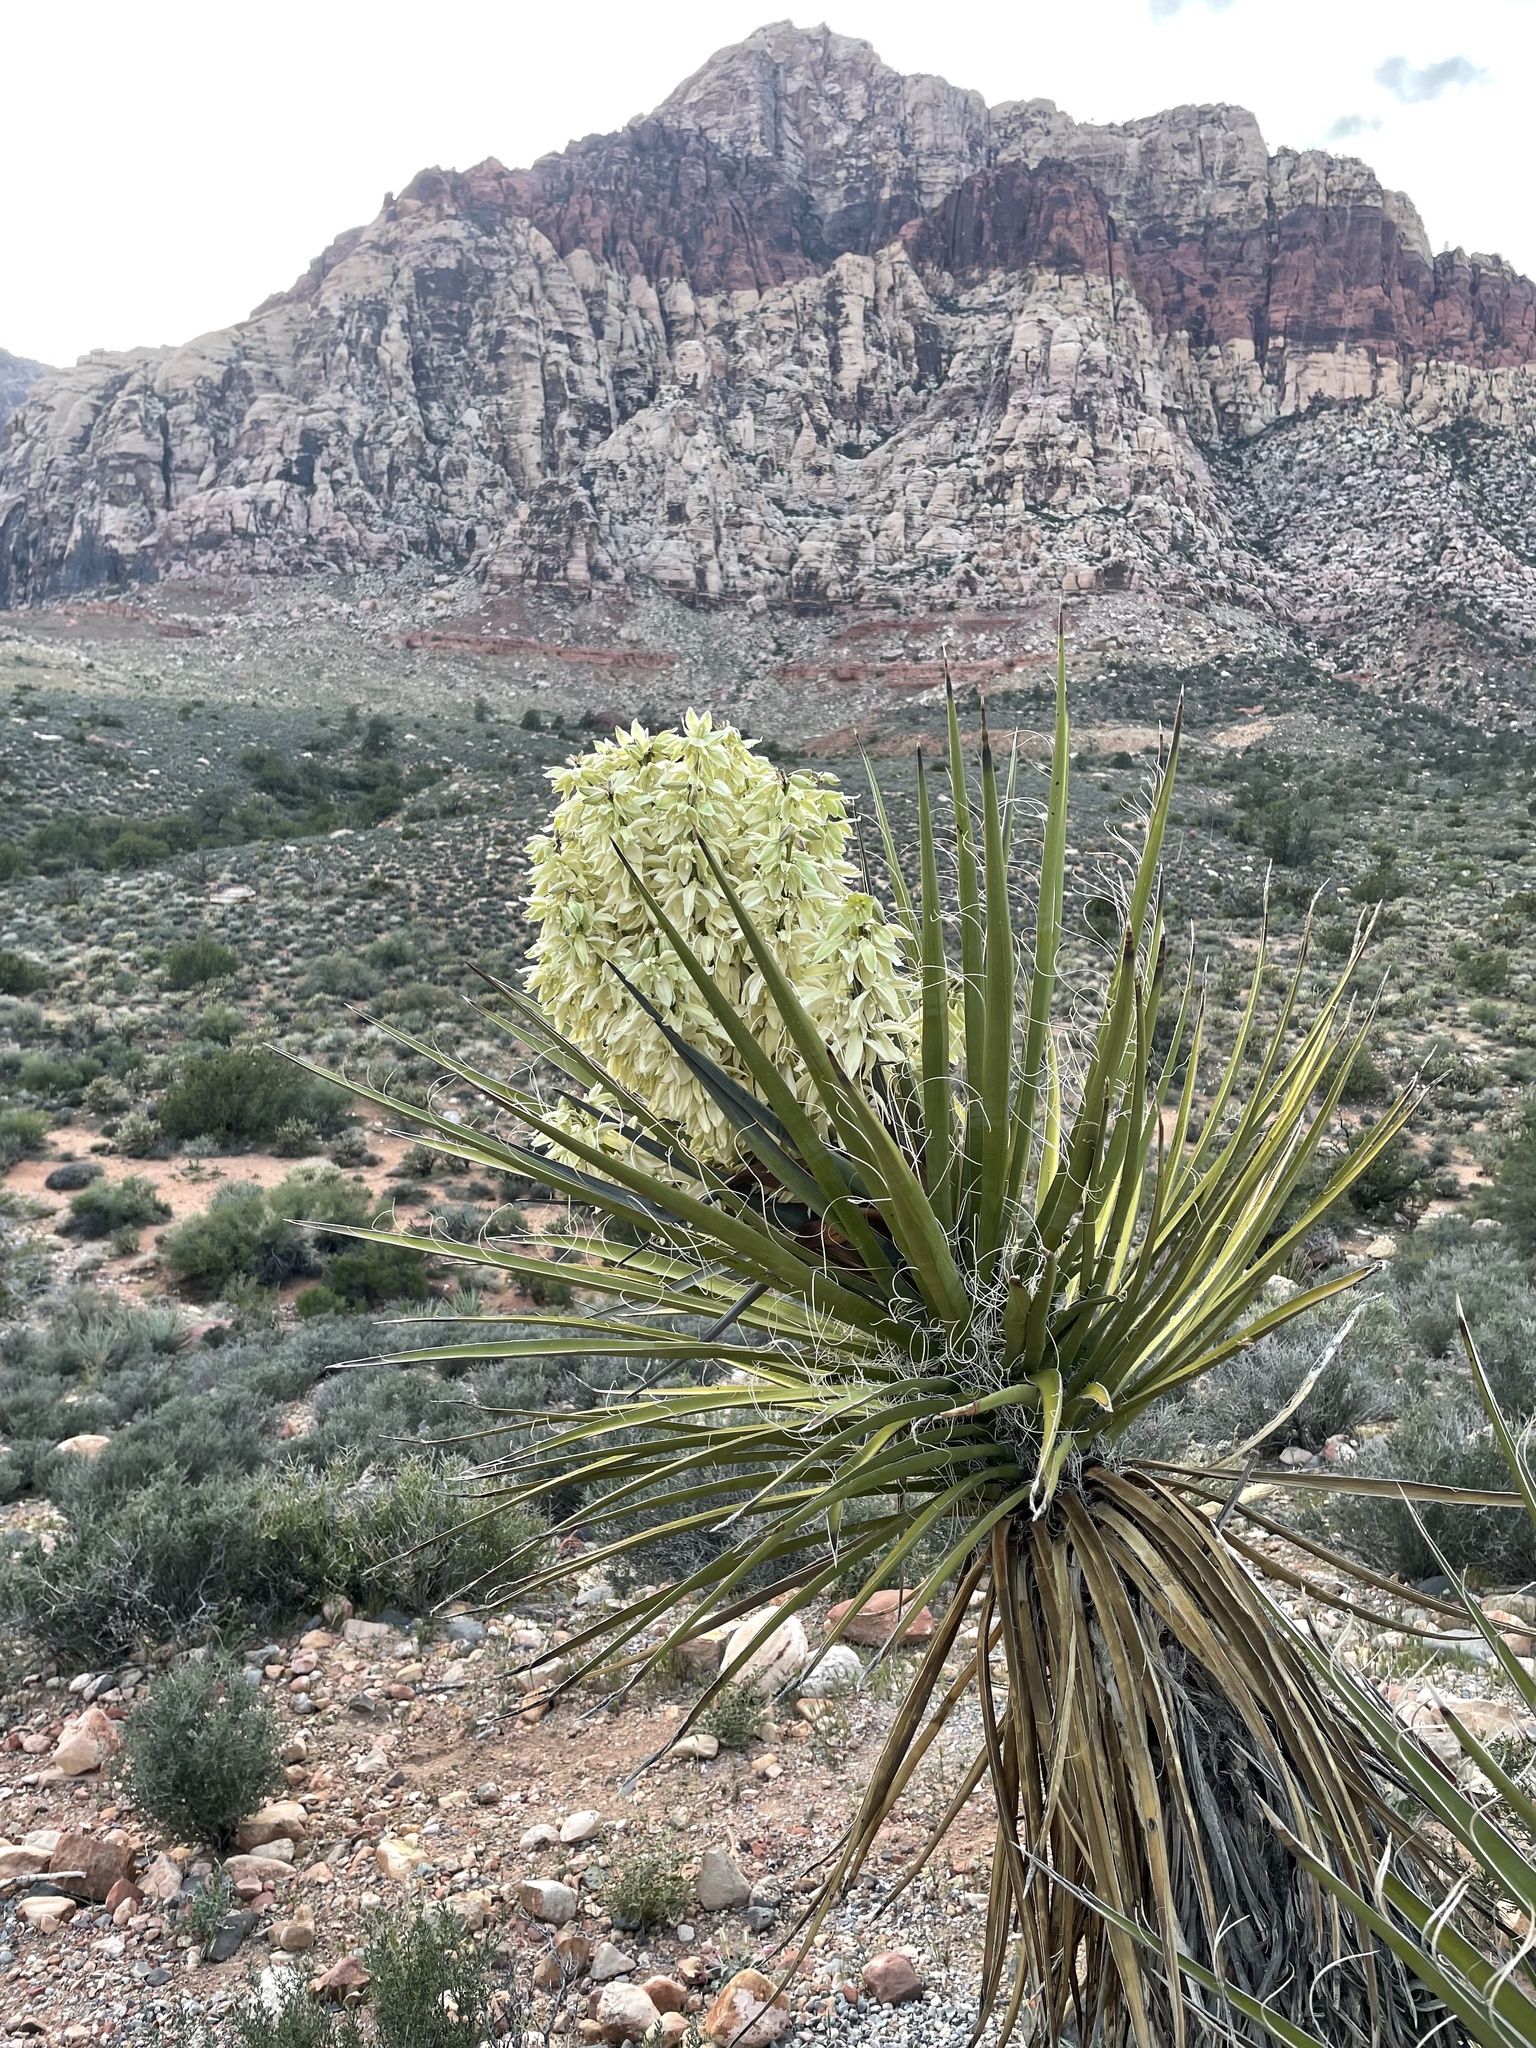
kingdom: Plantae
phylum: Tracheophyta
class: Liliopsida
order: Asparagales
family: Asparagaceae
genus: Yucca
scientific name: Yucca schidigera
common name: Mojave yucca
